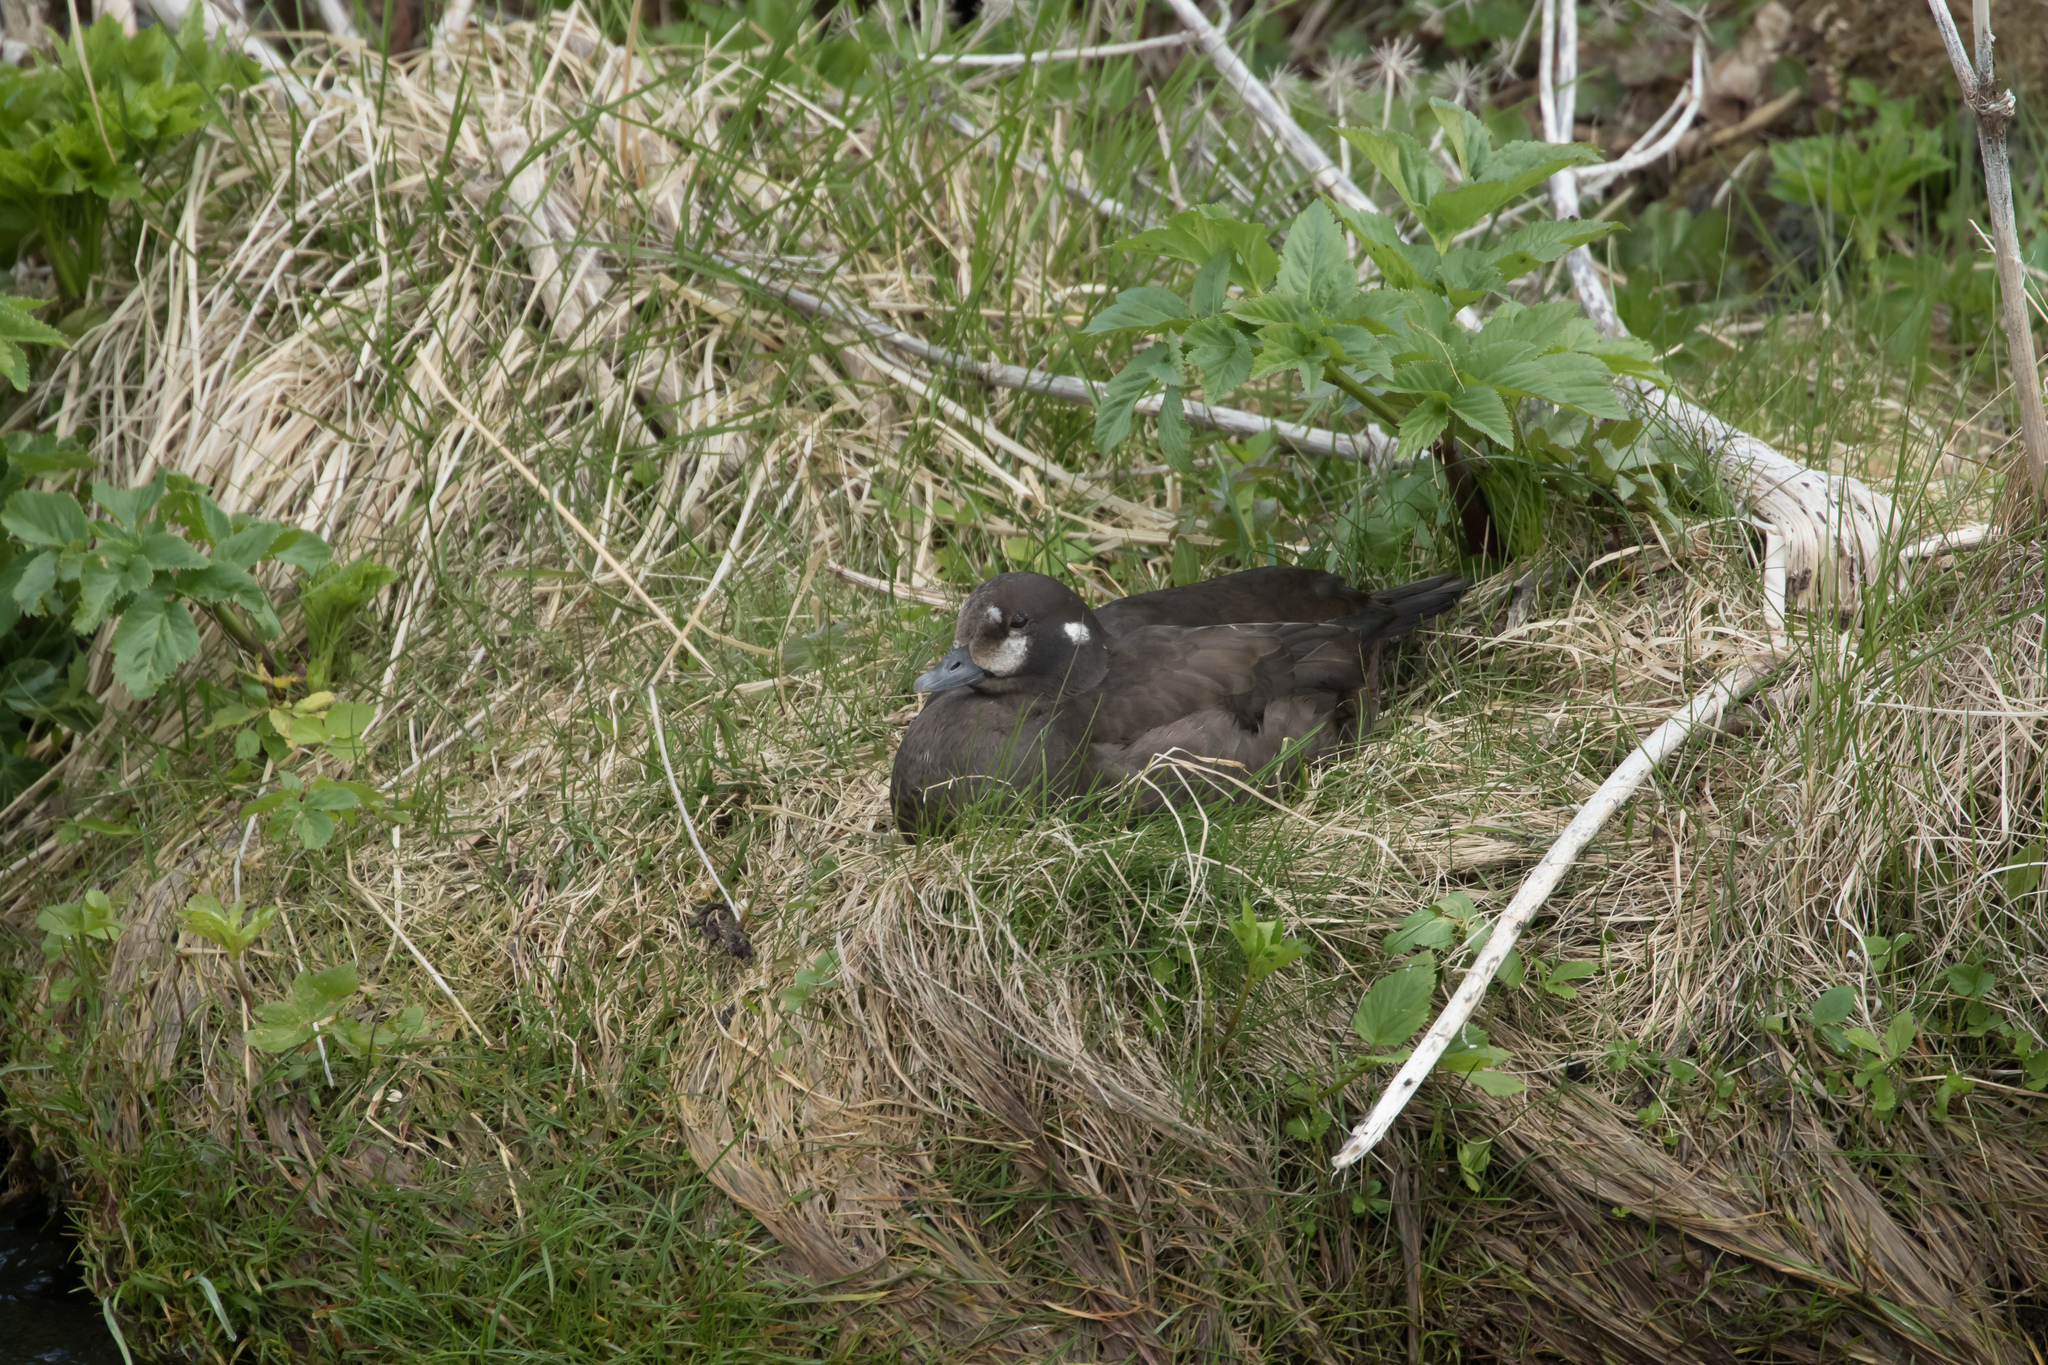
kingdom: Animalia
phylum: Chordata
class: Aves
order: Anseriformes
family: Anatidae
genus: Histrionicus
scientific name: Histrionicus histrionicus
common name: Harlequin duck
